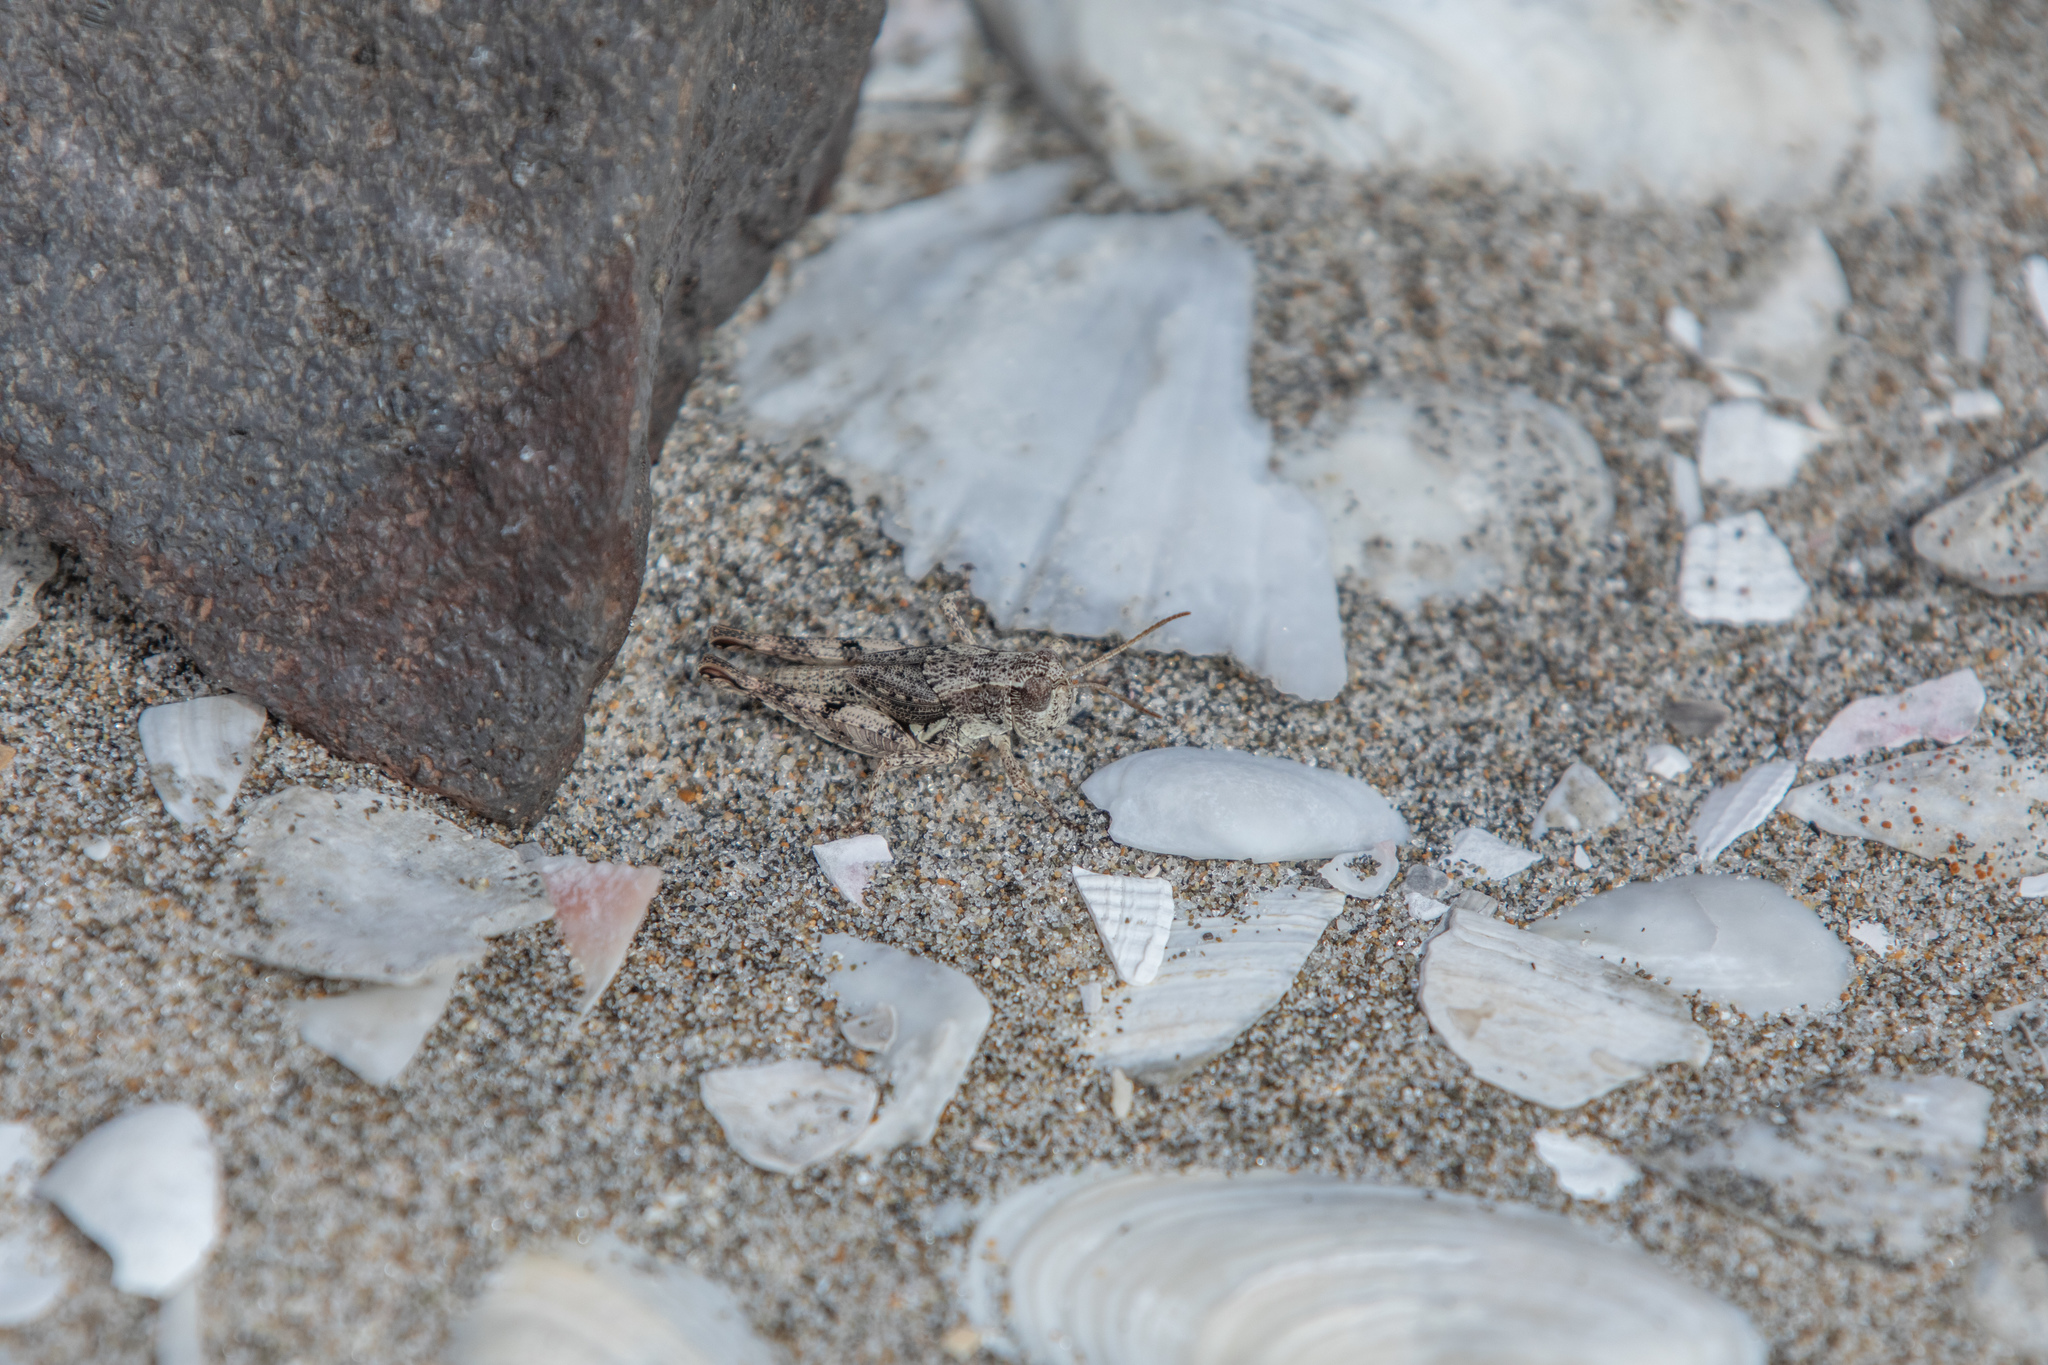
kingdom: Animalia
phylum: Arthropoda
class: Insecta
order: Orthoptera
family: Acrididae
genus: Phaulacridium
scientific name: Phaulacridium marginale
